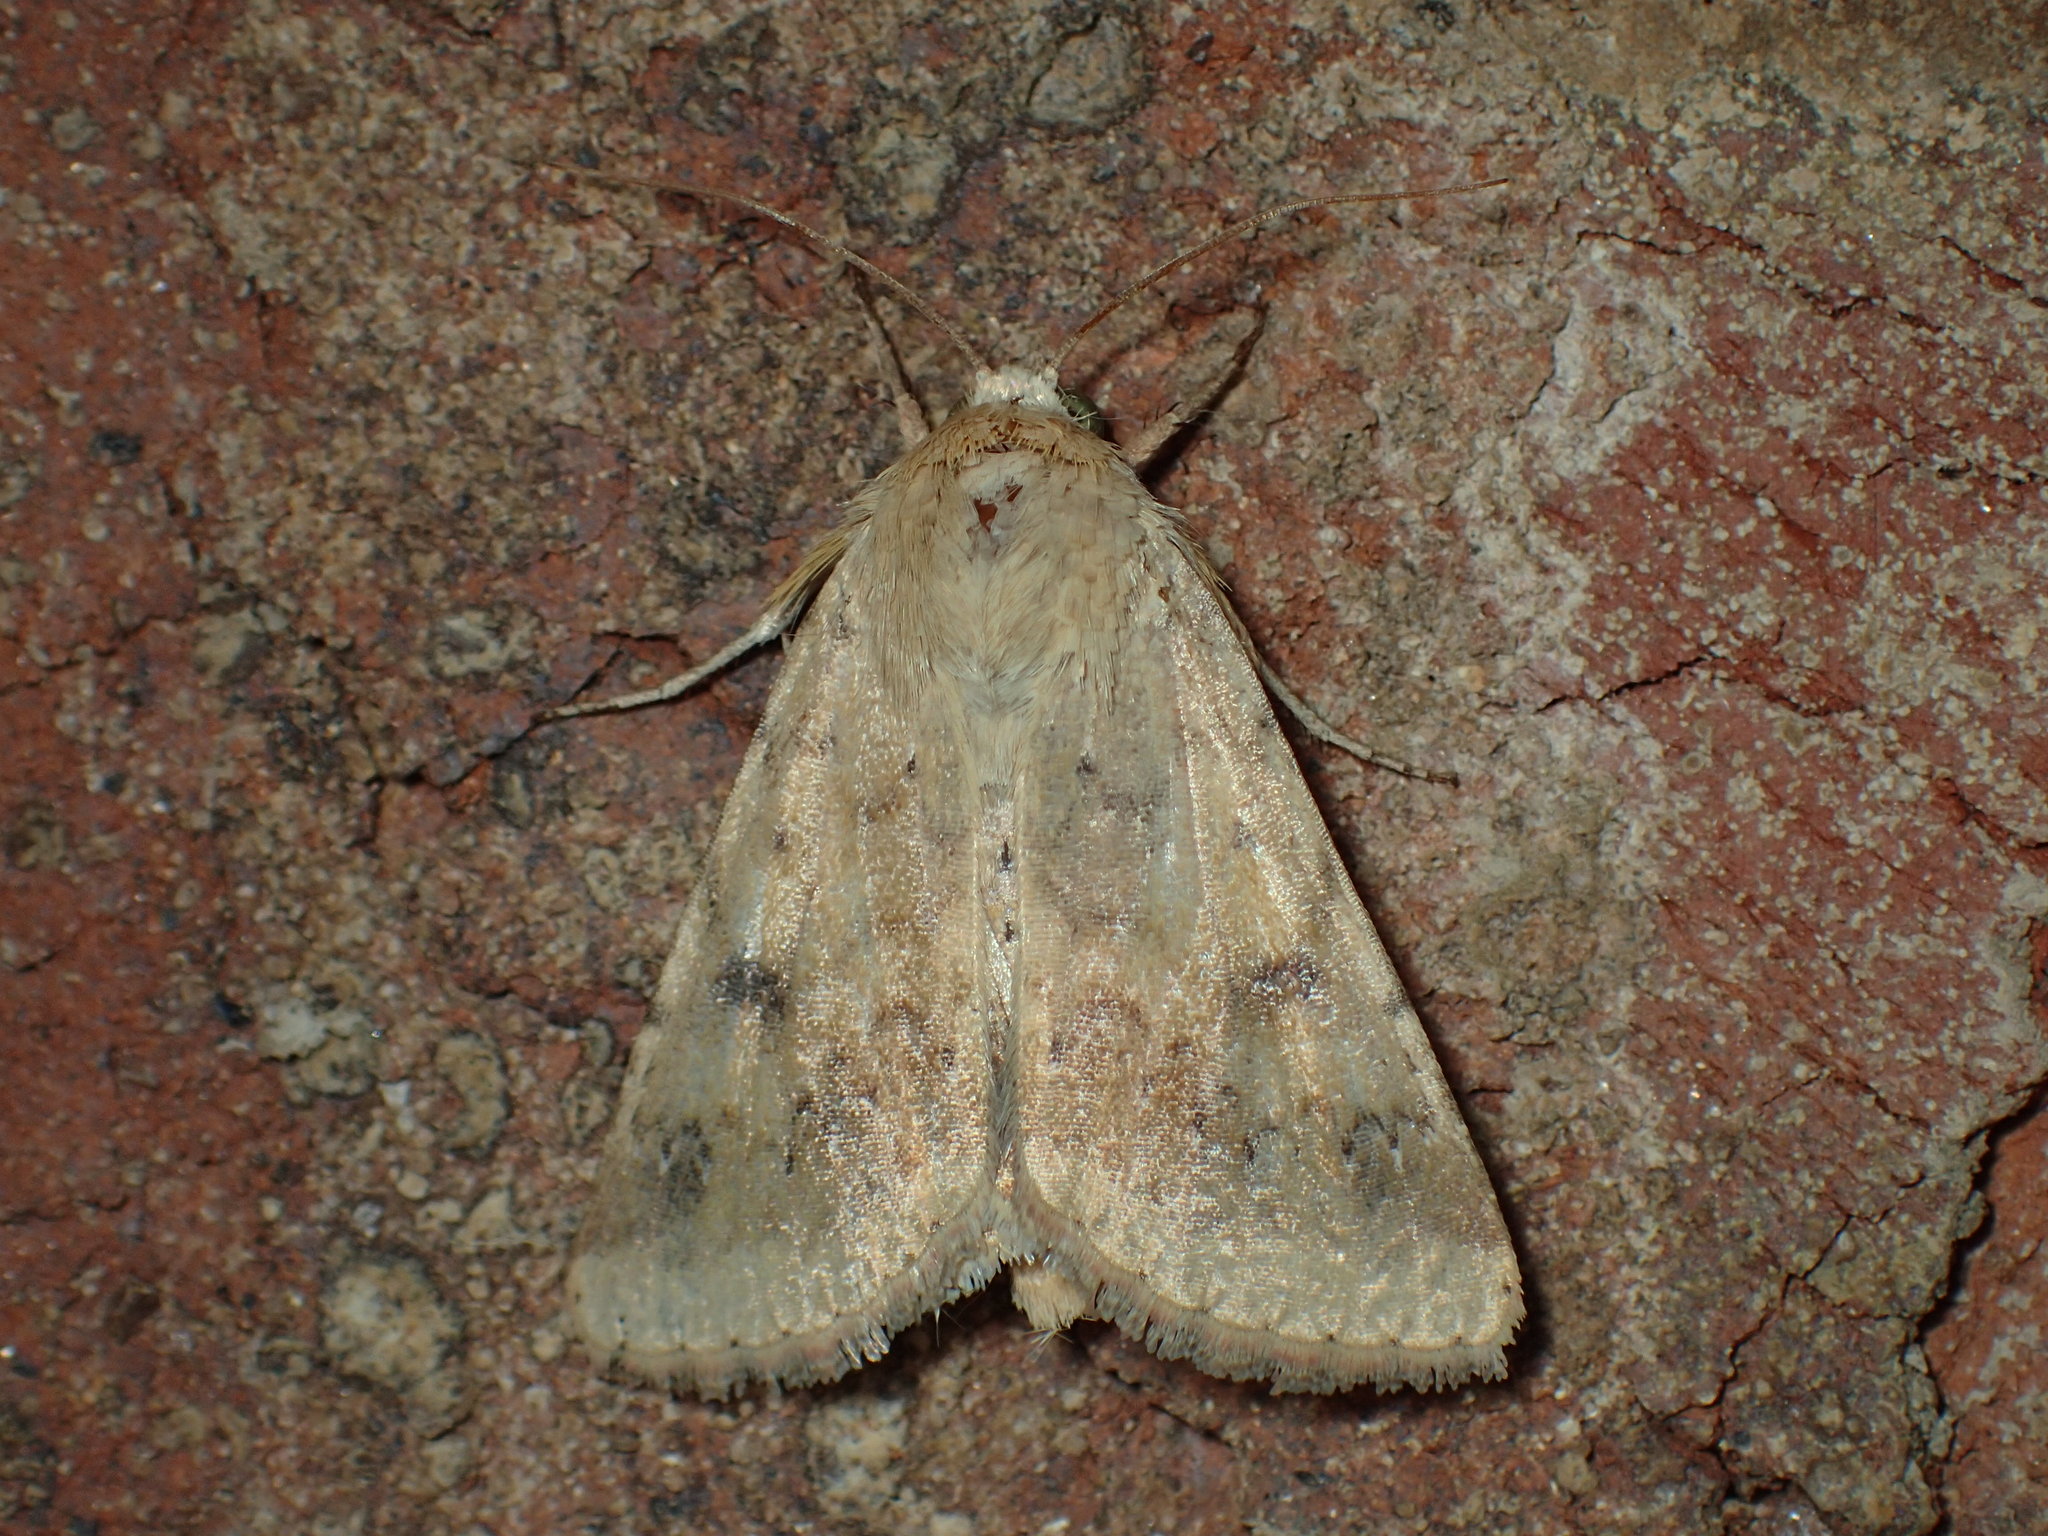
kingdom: Animalia
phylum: Arthropoda
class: Insecta
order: Lepidoptera
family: Noctuidae
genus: Helicoverpa
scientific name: Helicoverpa zea
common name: Bollworm
